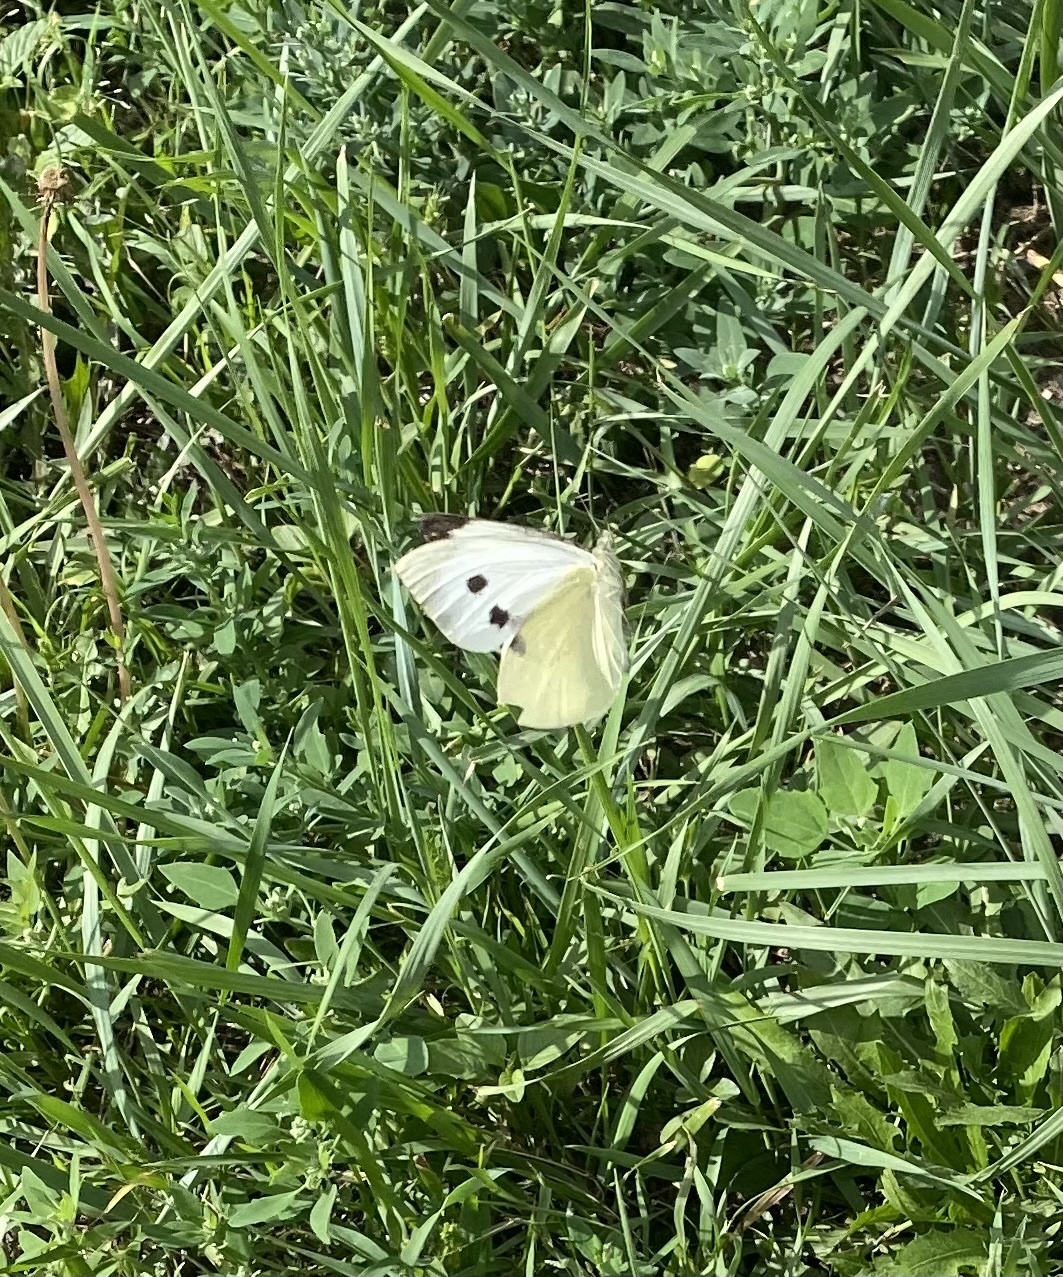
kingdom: Animalia
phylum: Arthropoda
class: Insecta
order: Lepidoptera
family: Pieridae
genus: Pieris
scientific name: Pieris rapae
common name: Small white
